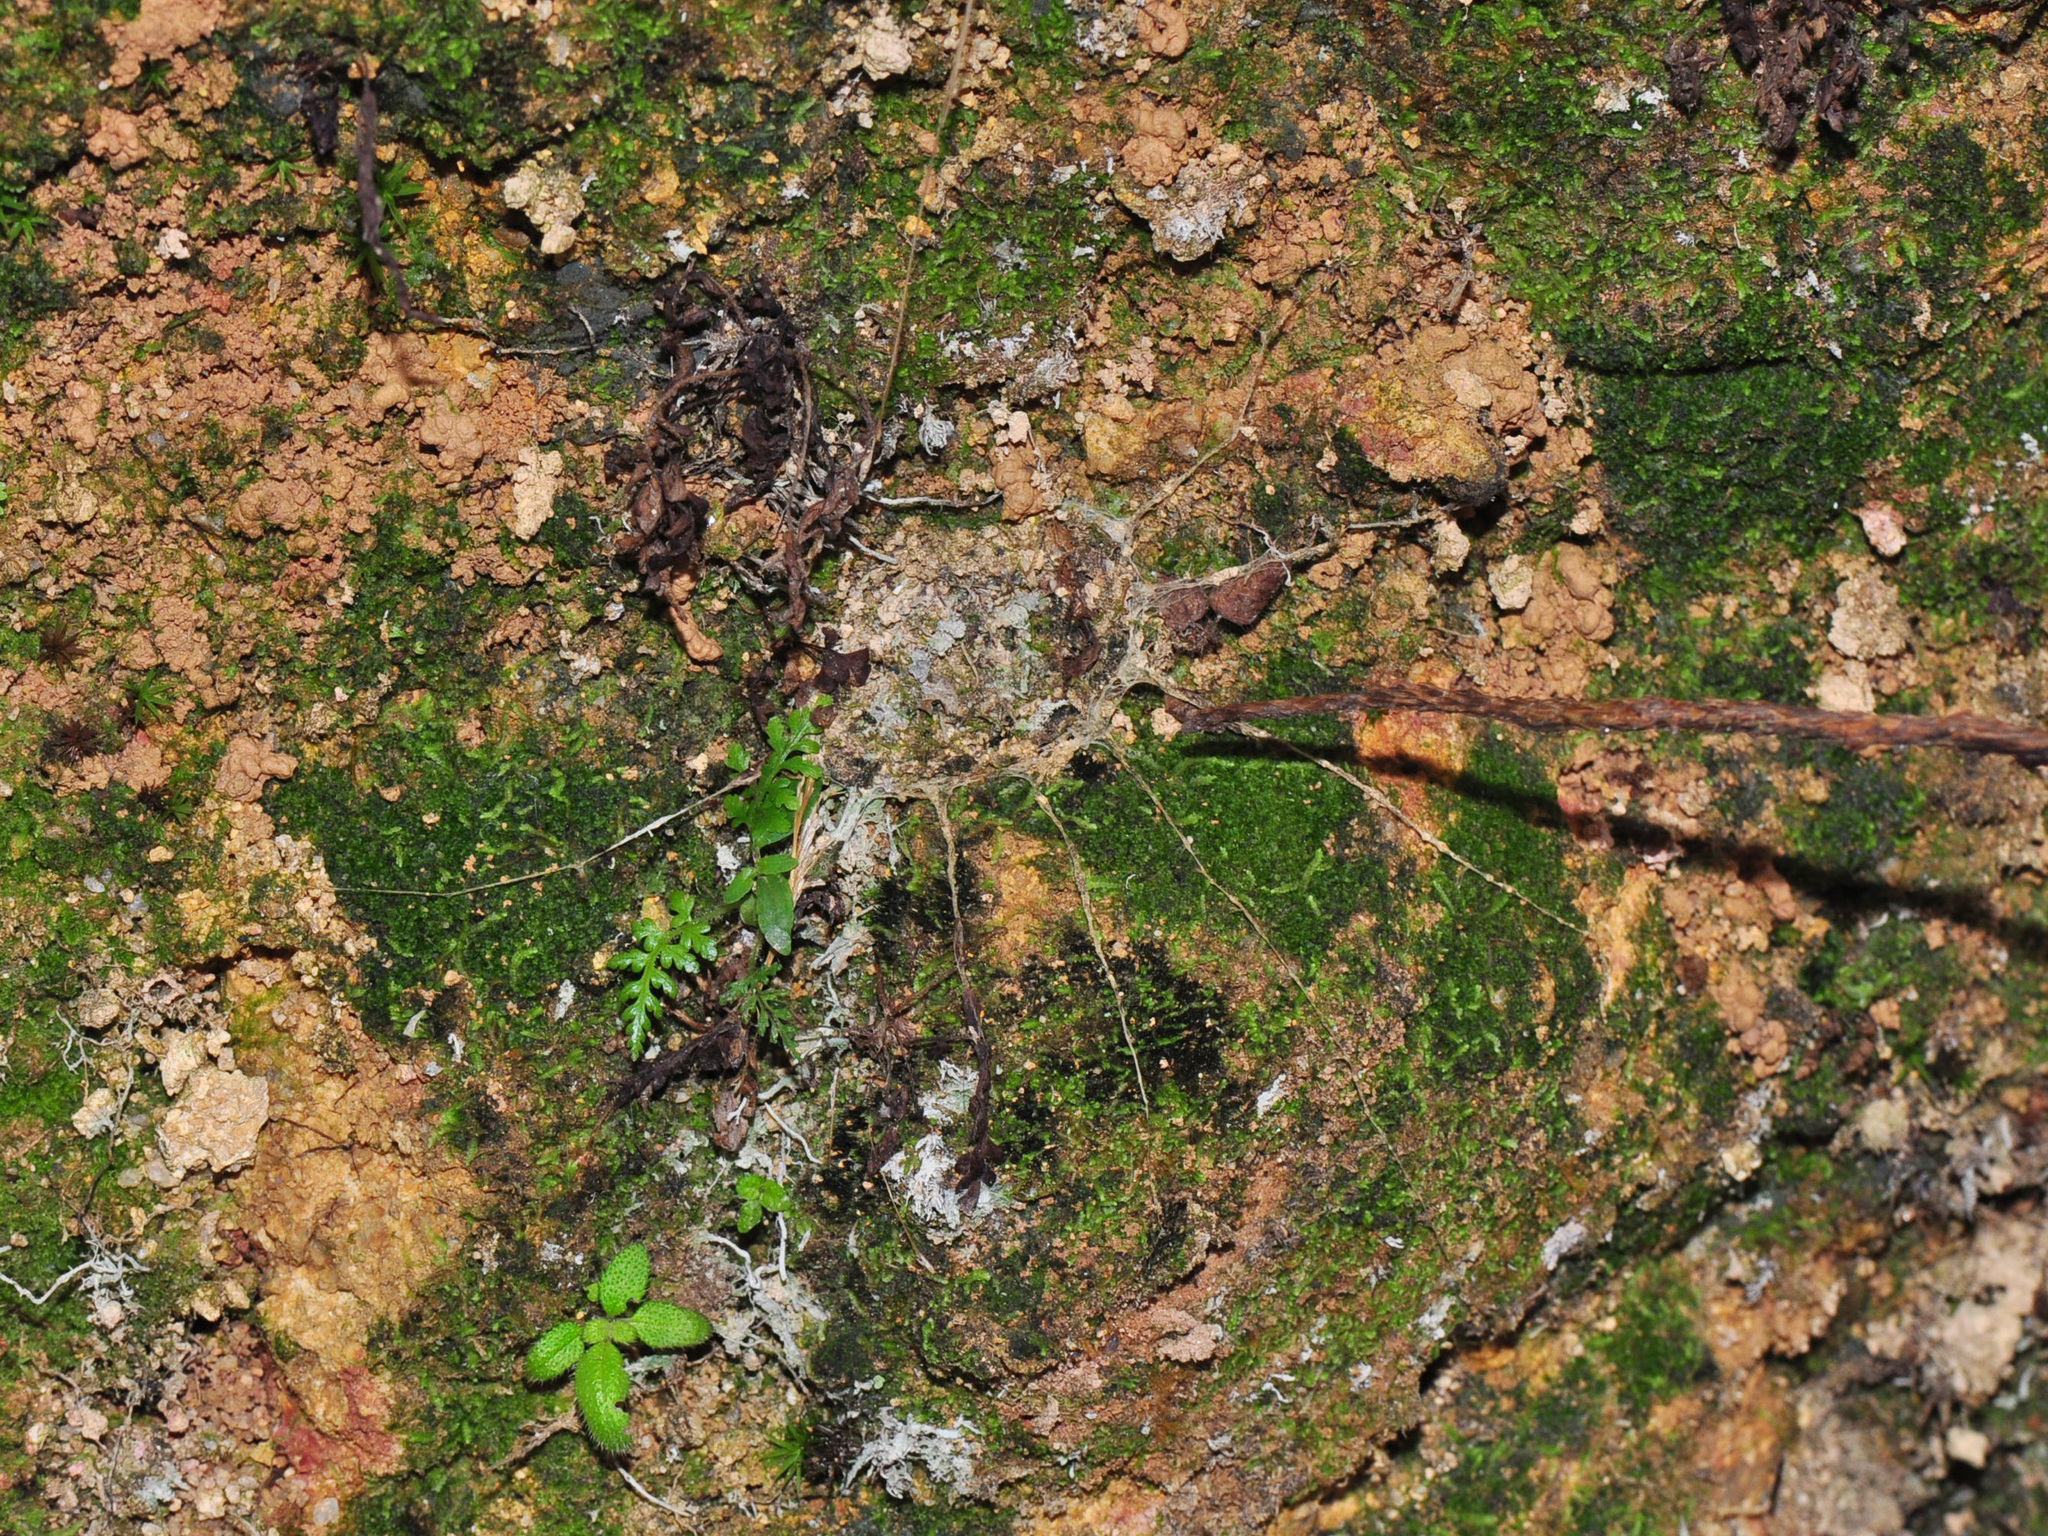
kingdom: Animalia
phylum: Arthropoda
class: Arachnida
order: Araneae
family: Liphistiidae
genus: Liphistius
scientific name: Liphistius malayanus
